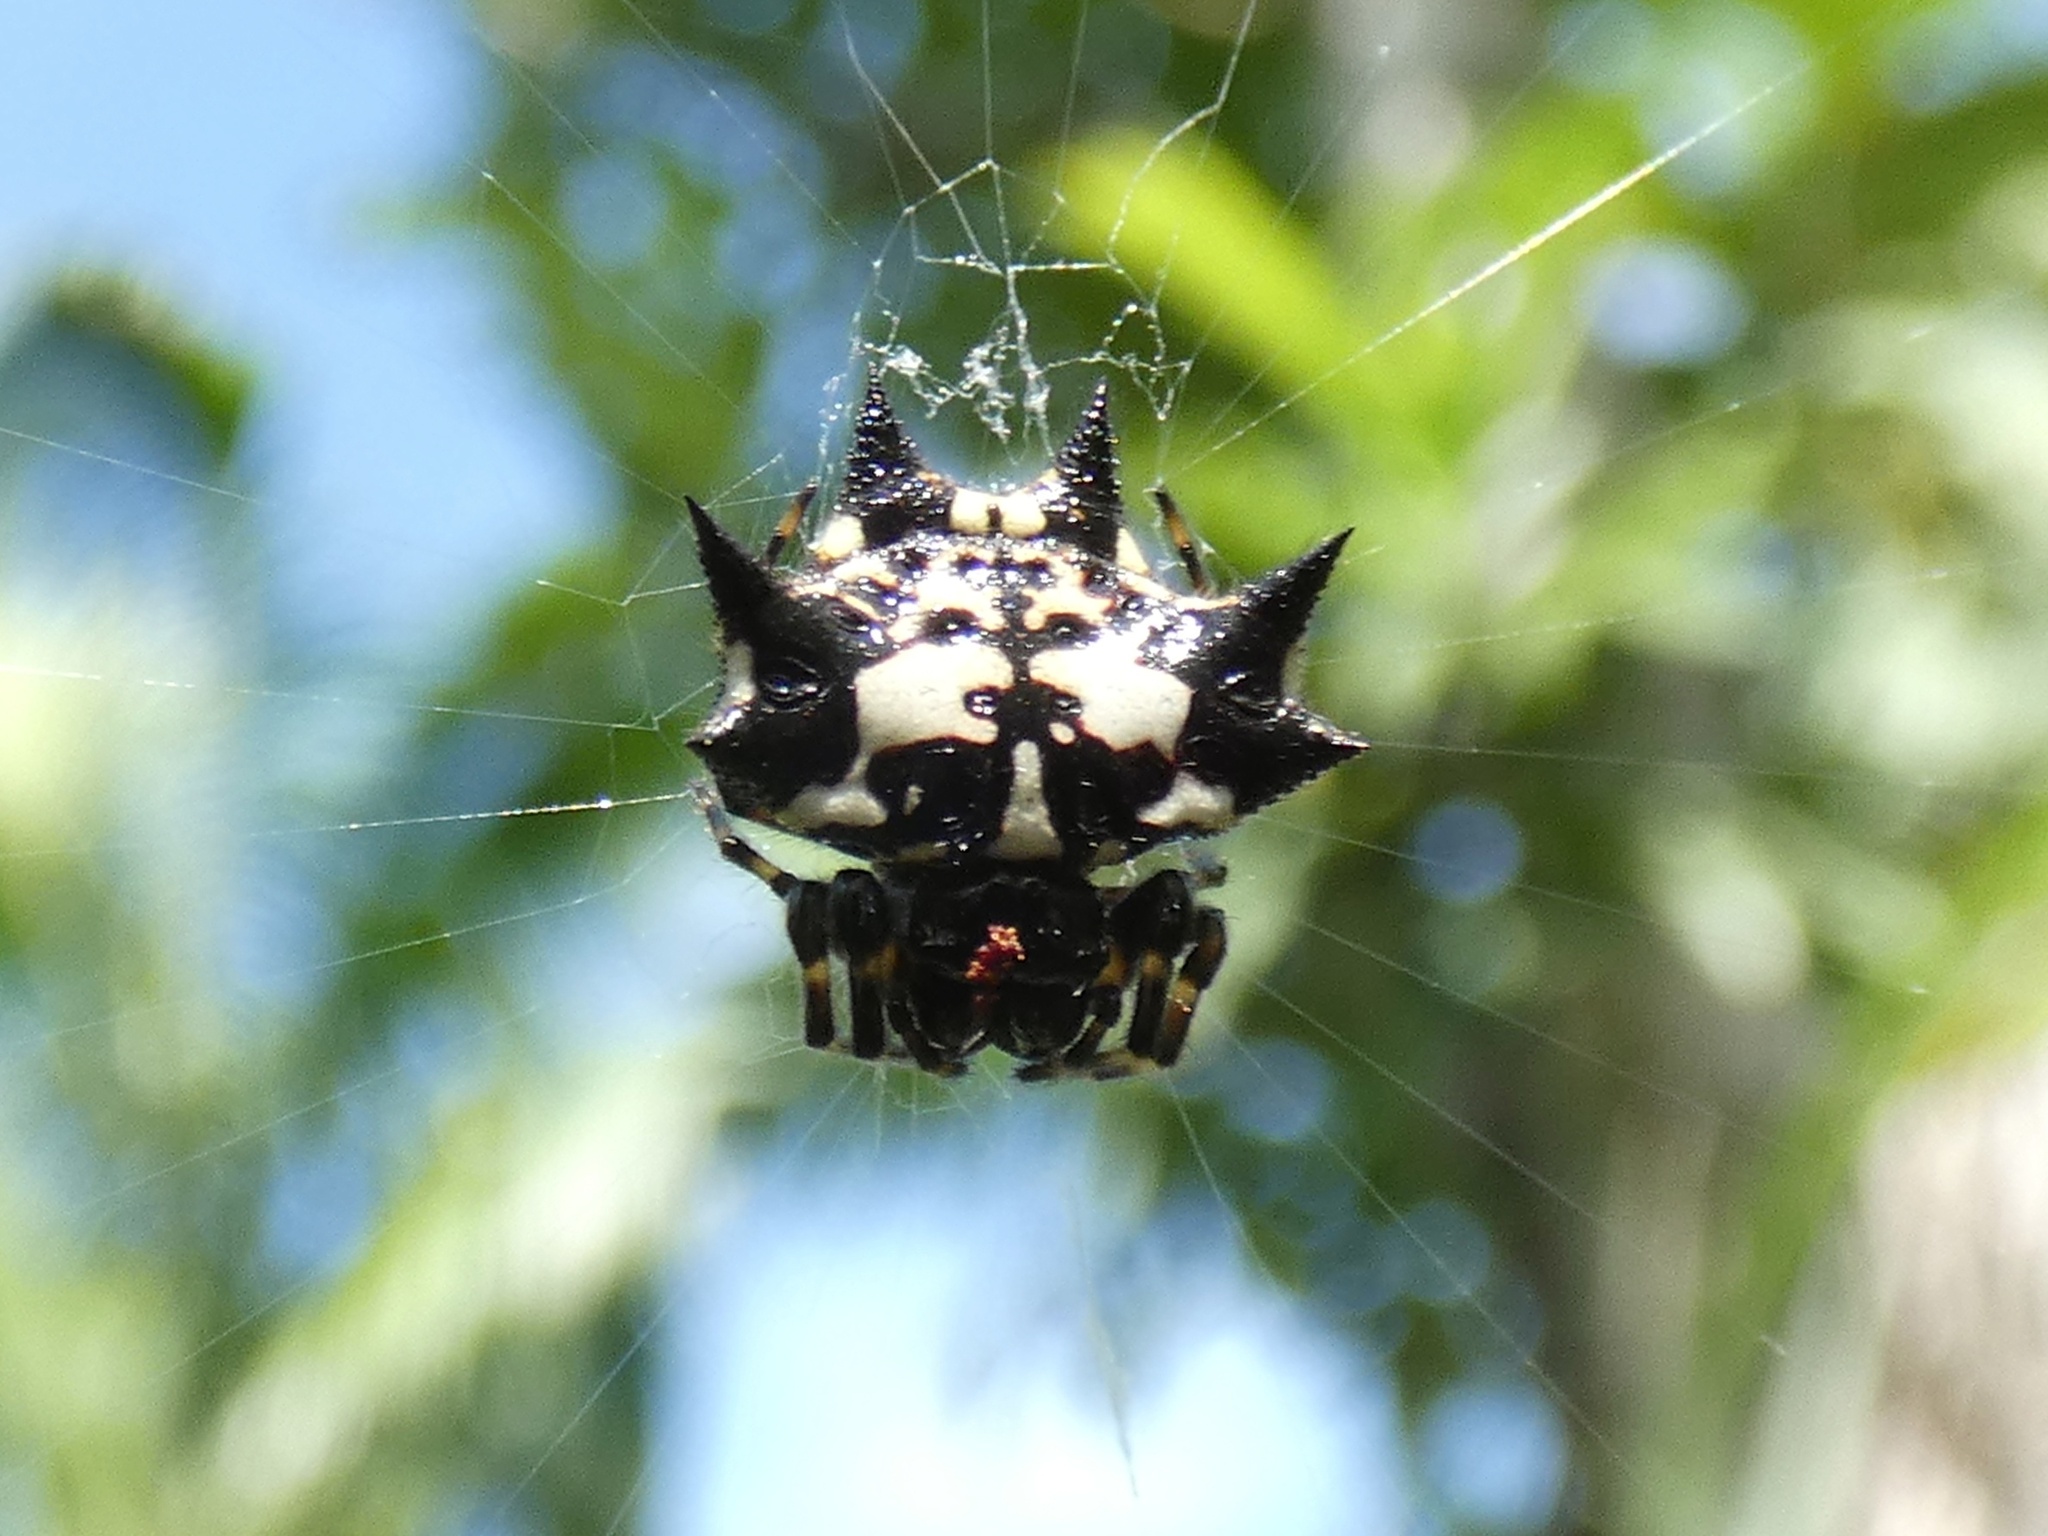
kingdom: Animalia
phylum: Arthropoda
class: Arachnida
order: Araneae
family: Araneidae
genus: Gasteracantha
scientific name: Gasteracantha kuhli
